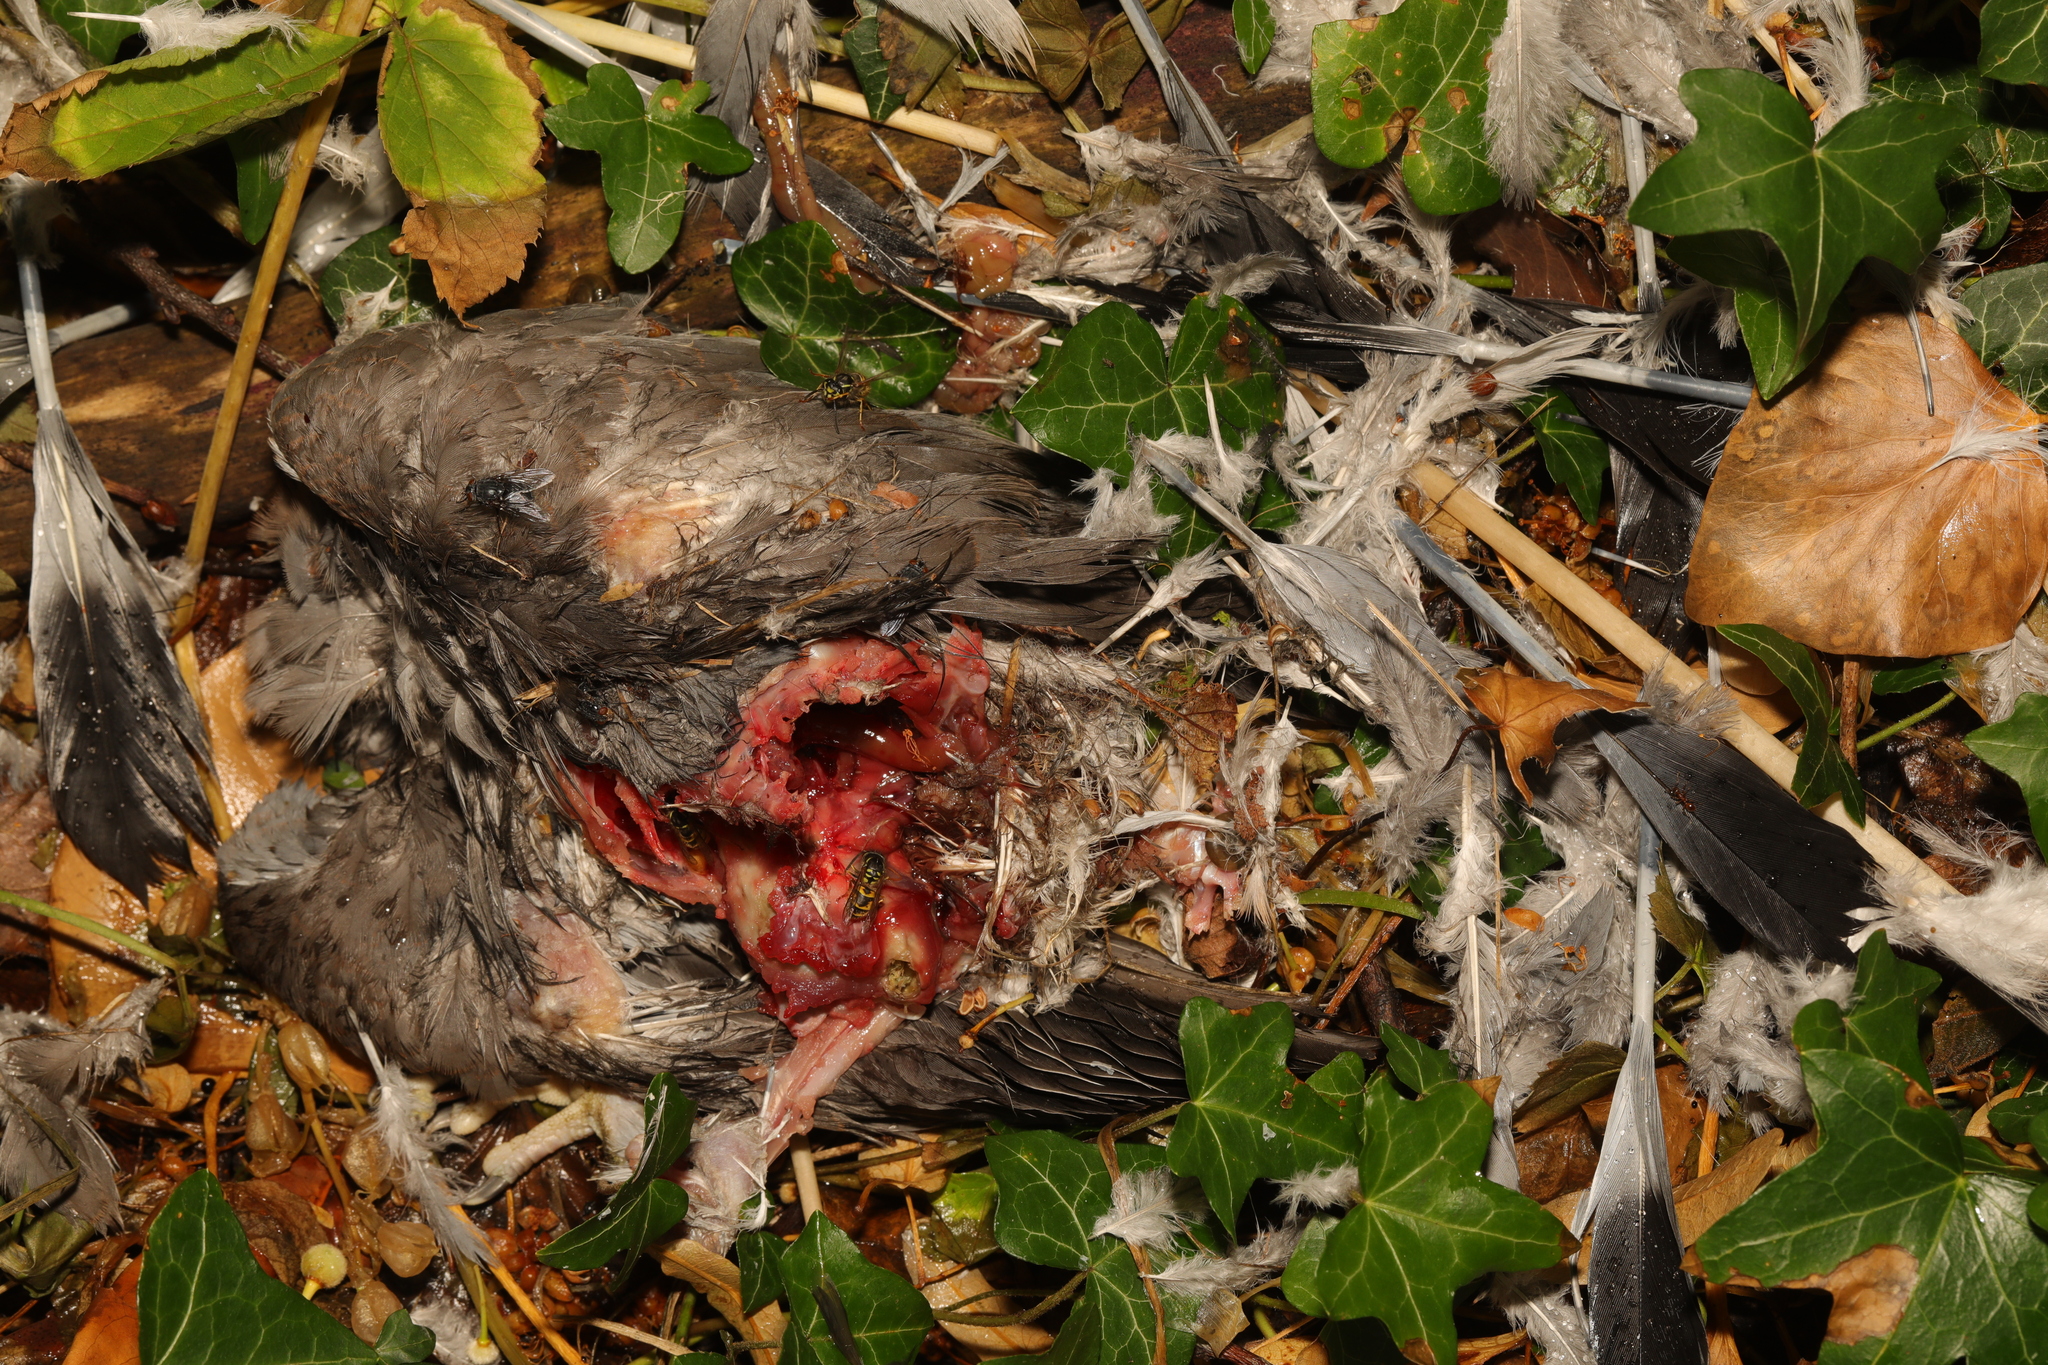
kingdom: Animalia
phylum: Arthropoda
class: Insecta
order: Hymenoptera
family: Vespidae
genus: Vespula
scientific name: Vespula vulgaris
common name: Common wasp
